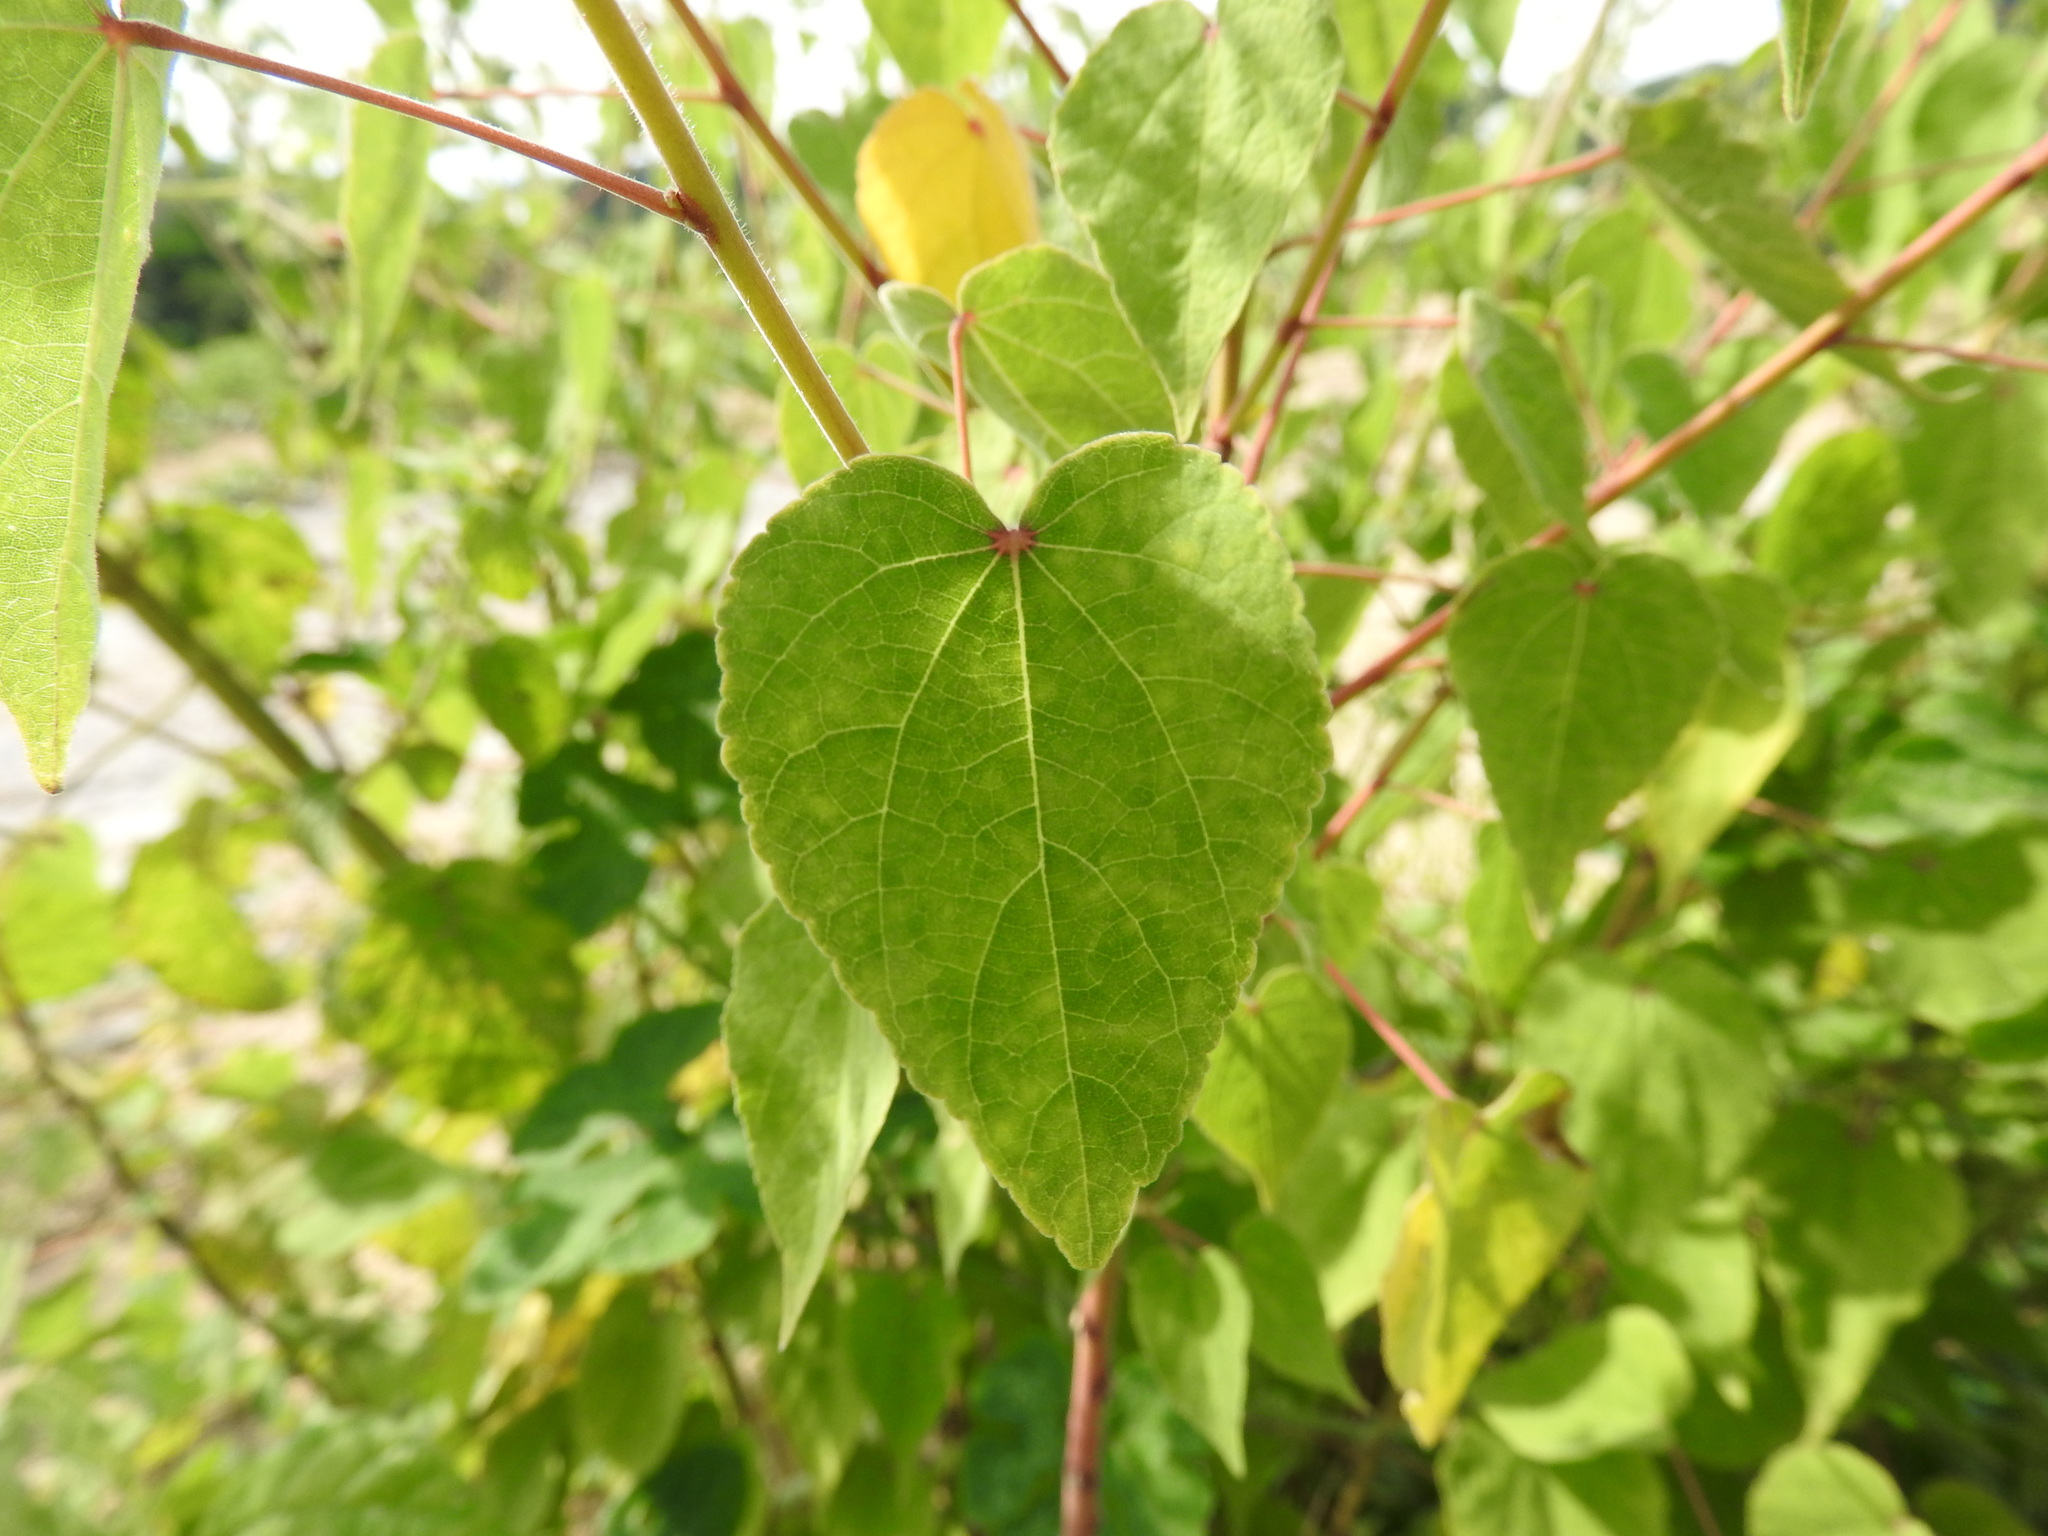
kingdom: Plantae
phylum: Tracheophyta
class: Magnoliopsida
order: Malvales
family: Malvaceae
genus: Bastardiastrum
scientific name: Bastardiastrum gracile
